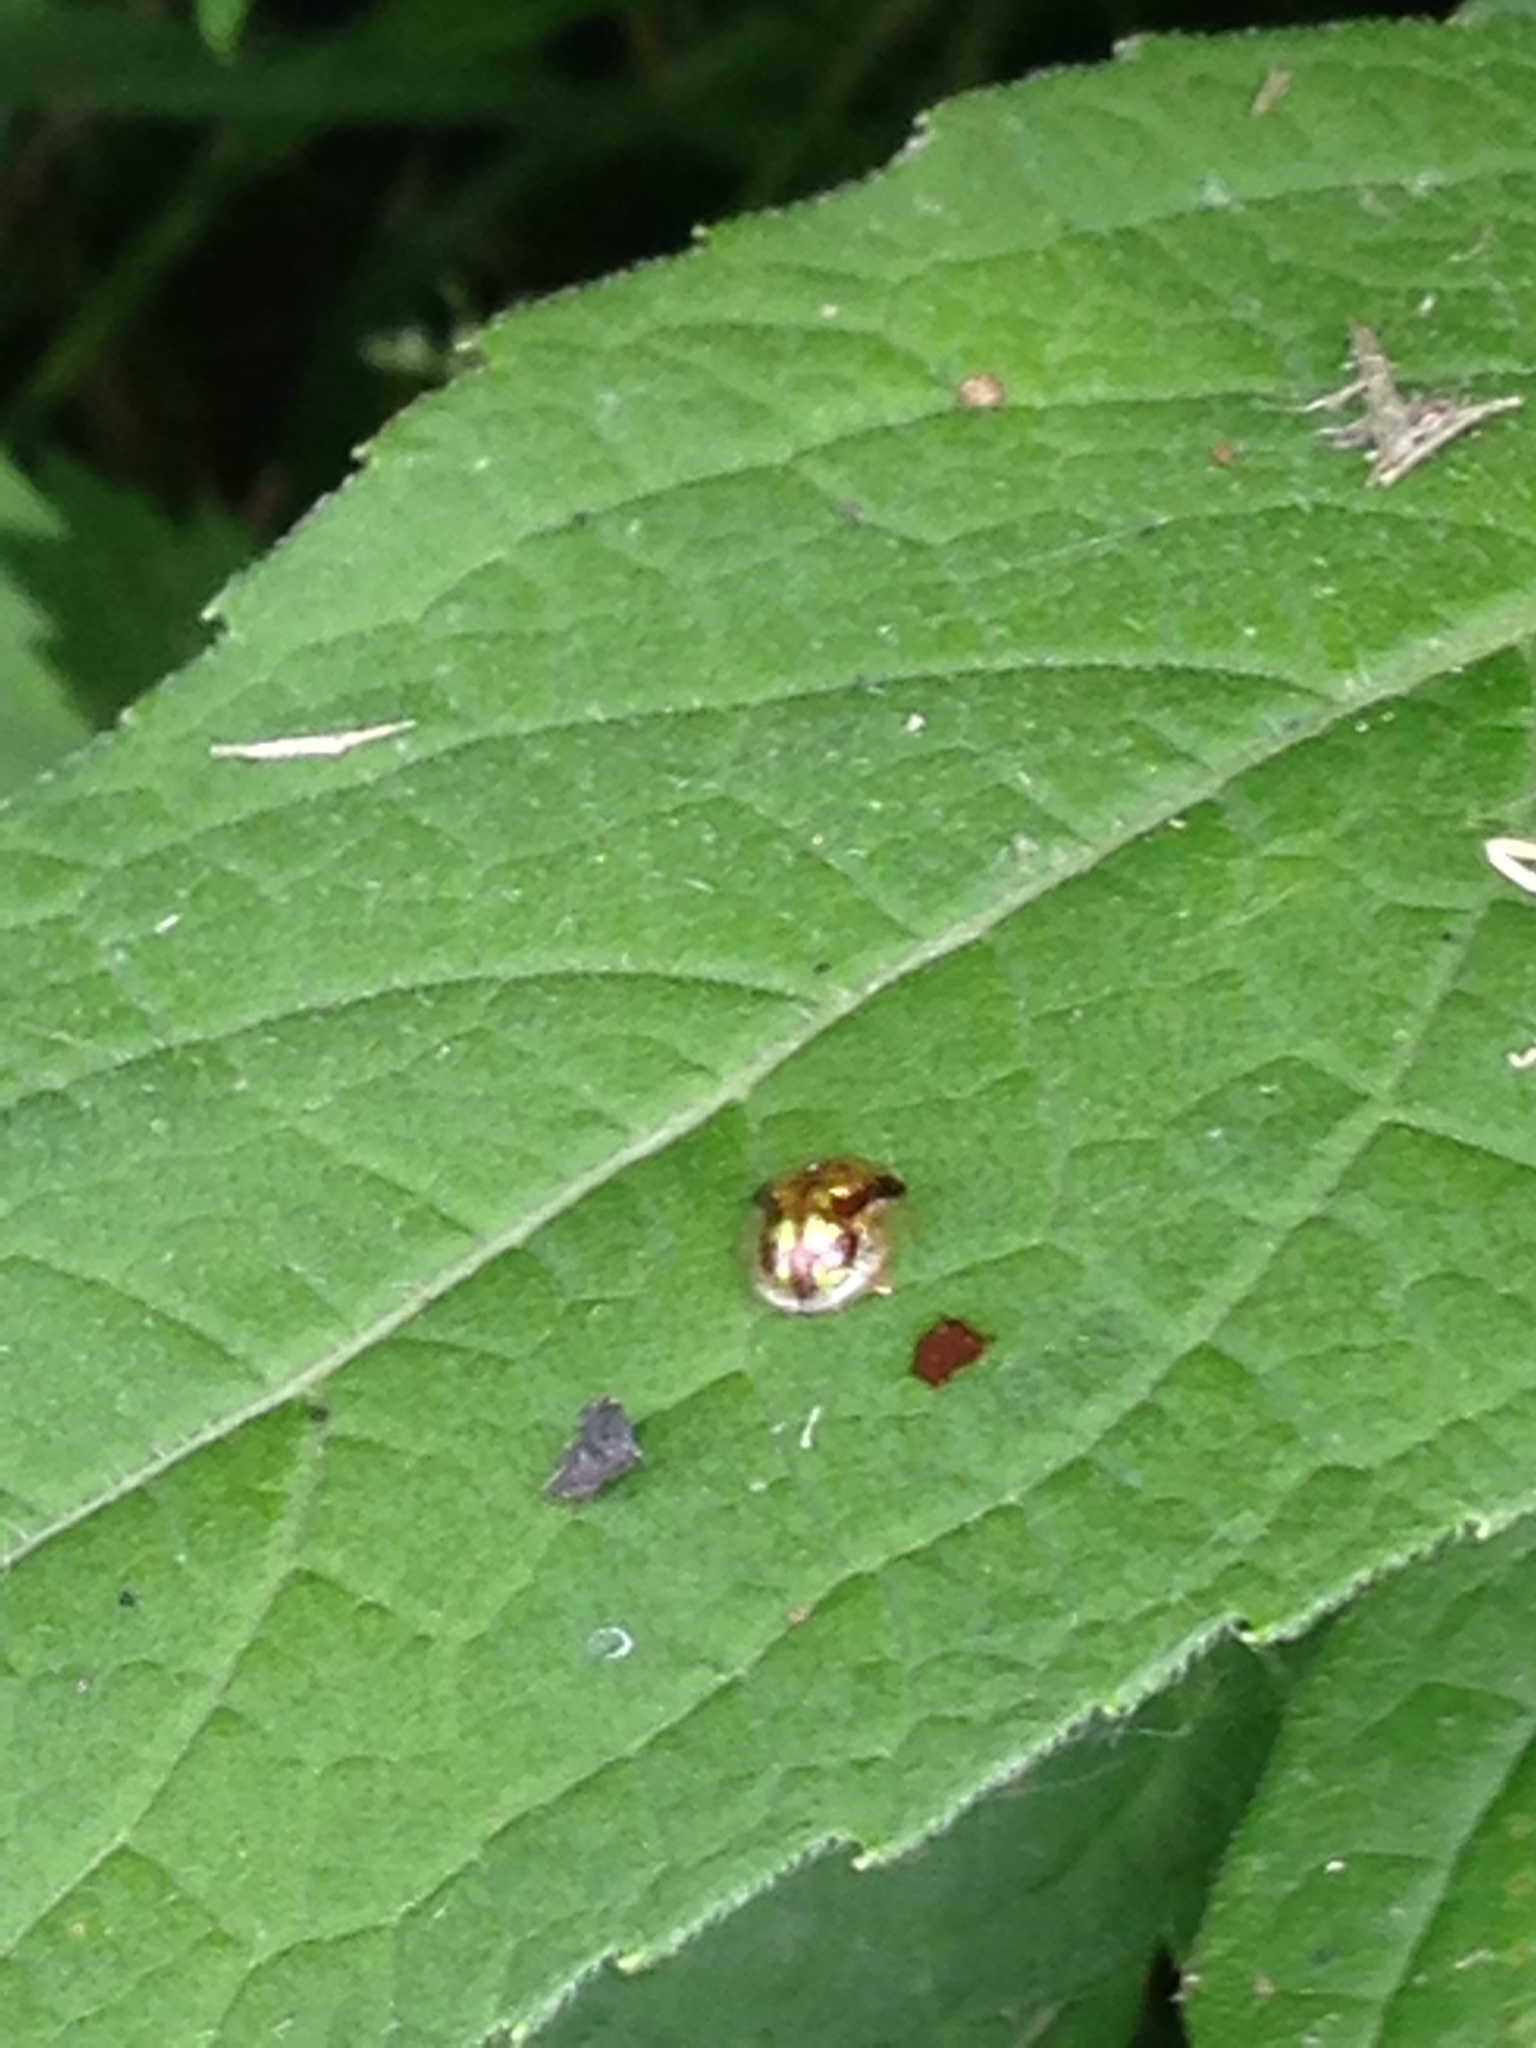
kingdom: Animalia
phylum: Arthropoda
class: Insecta
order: Coleoptera
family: Chrysomelidae
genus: Deloyala
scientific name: Deloyala guttata
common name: Mottled tortoise beetle
